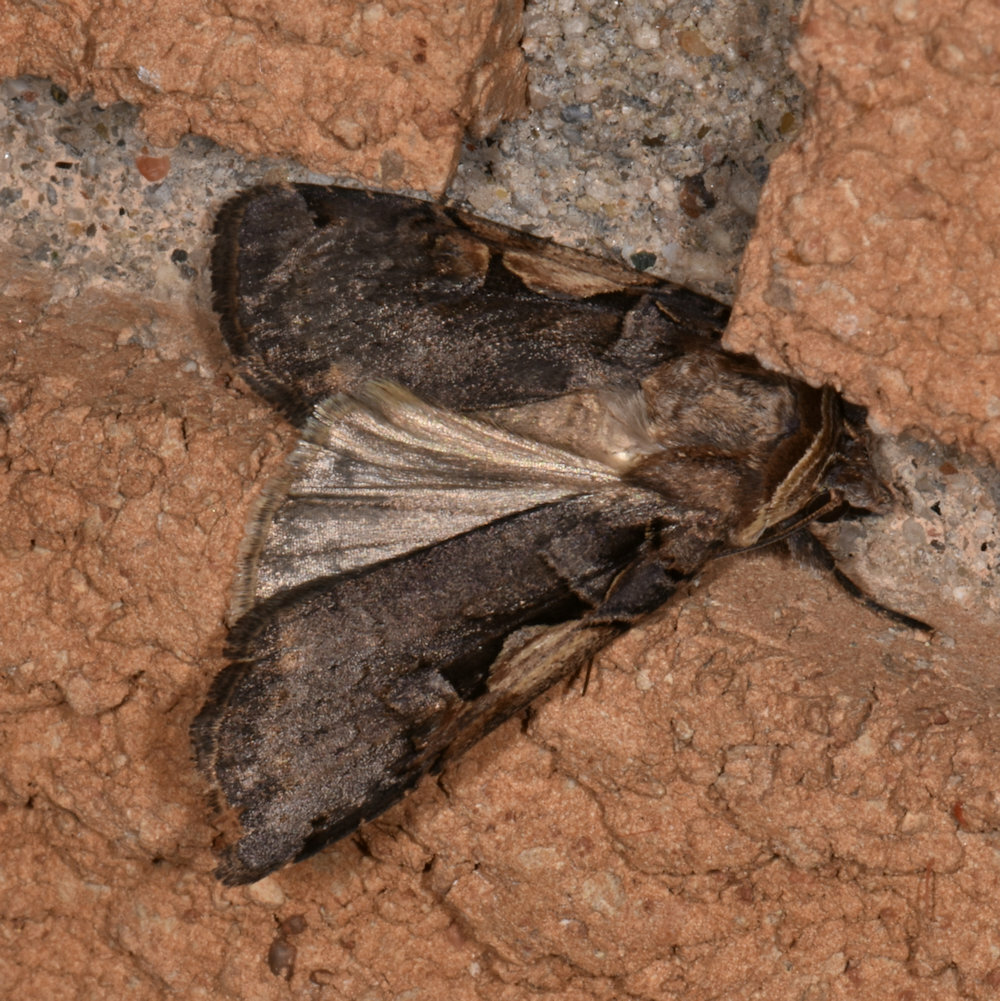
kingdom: Animalia
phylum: Arthropoda
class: Insecta
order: Lepidoptera
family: Noctuidae
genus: Xestia
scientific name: Xestia
